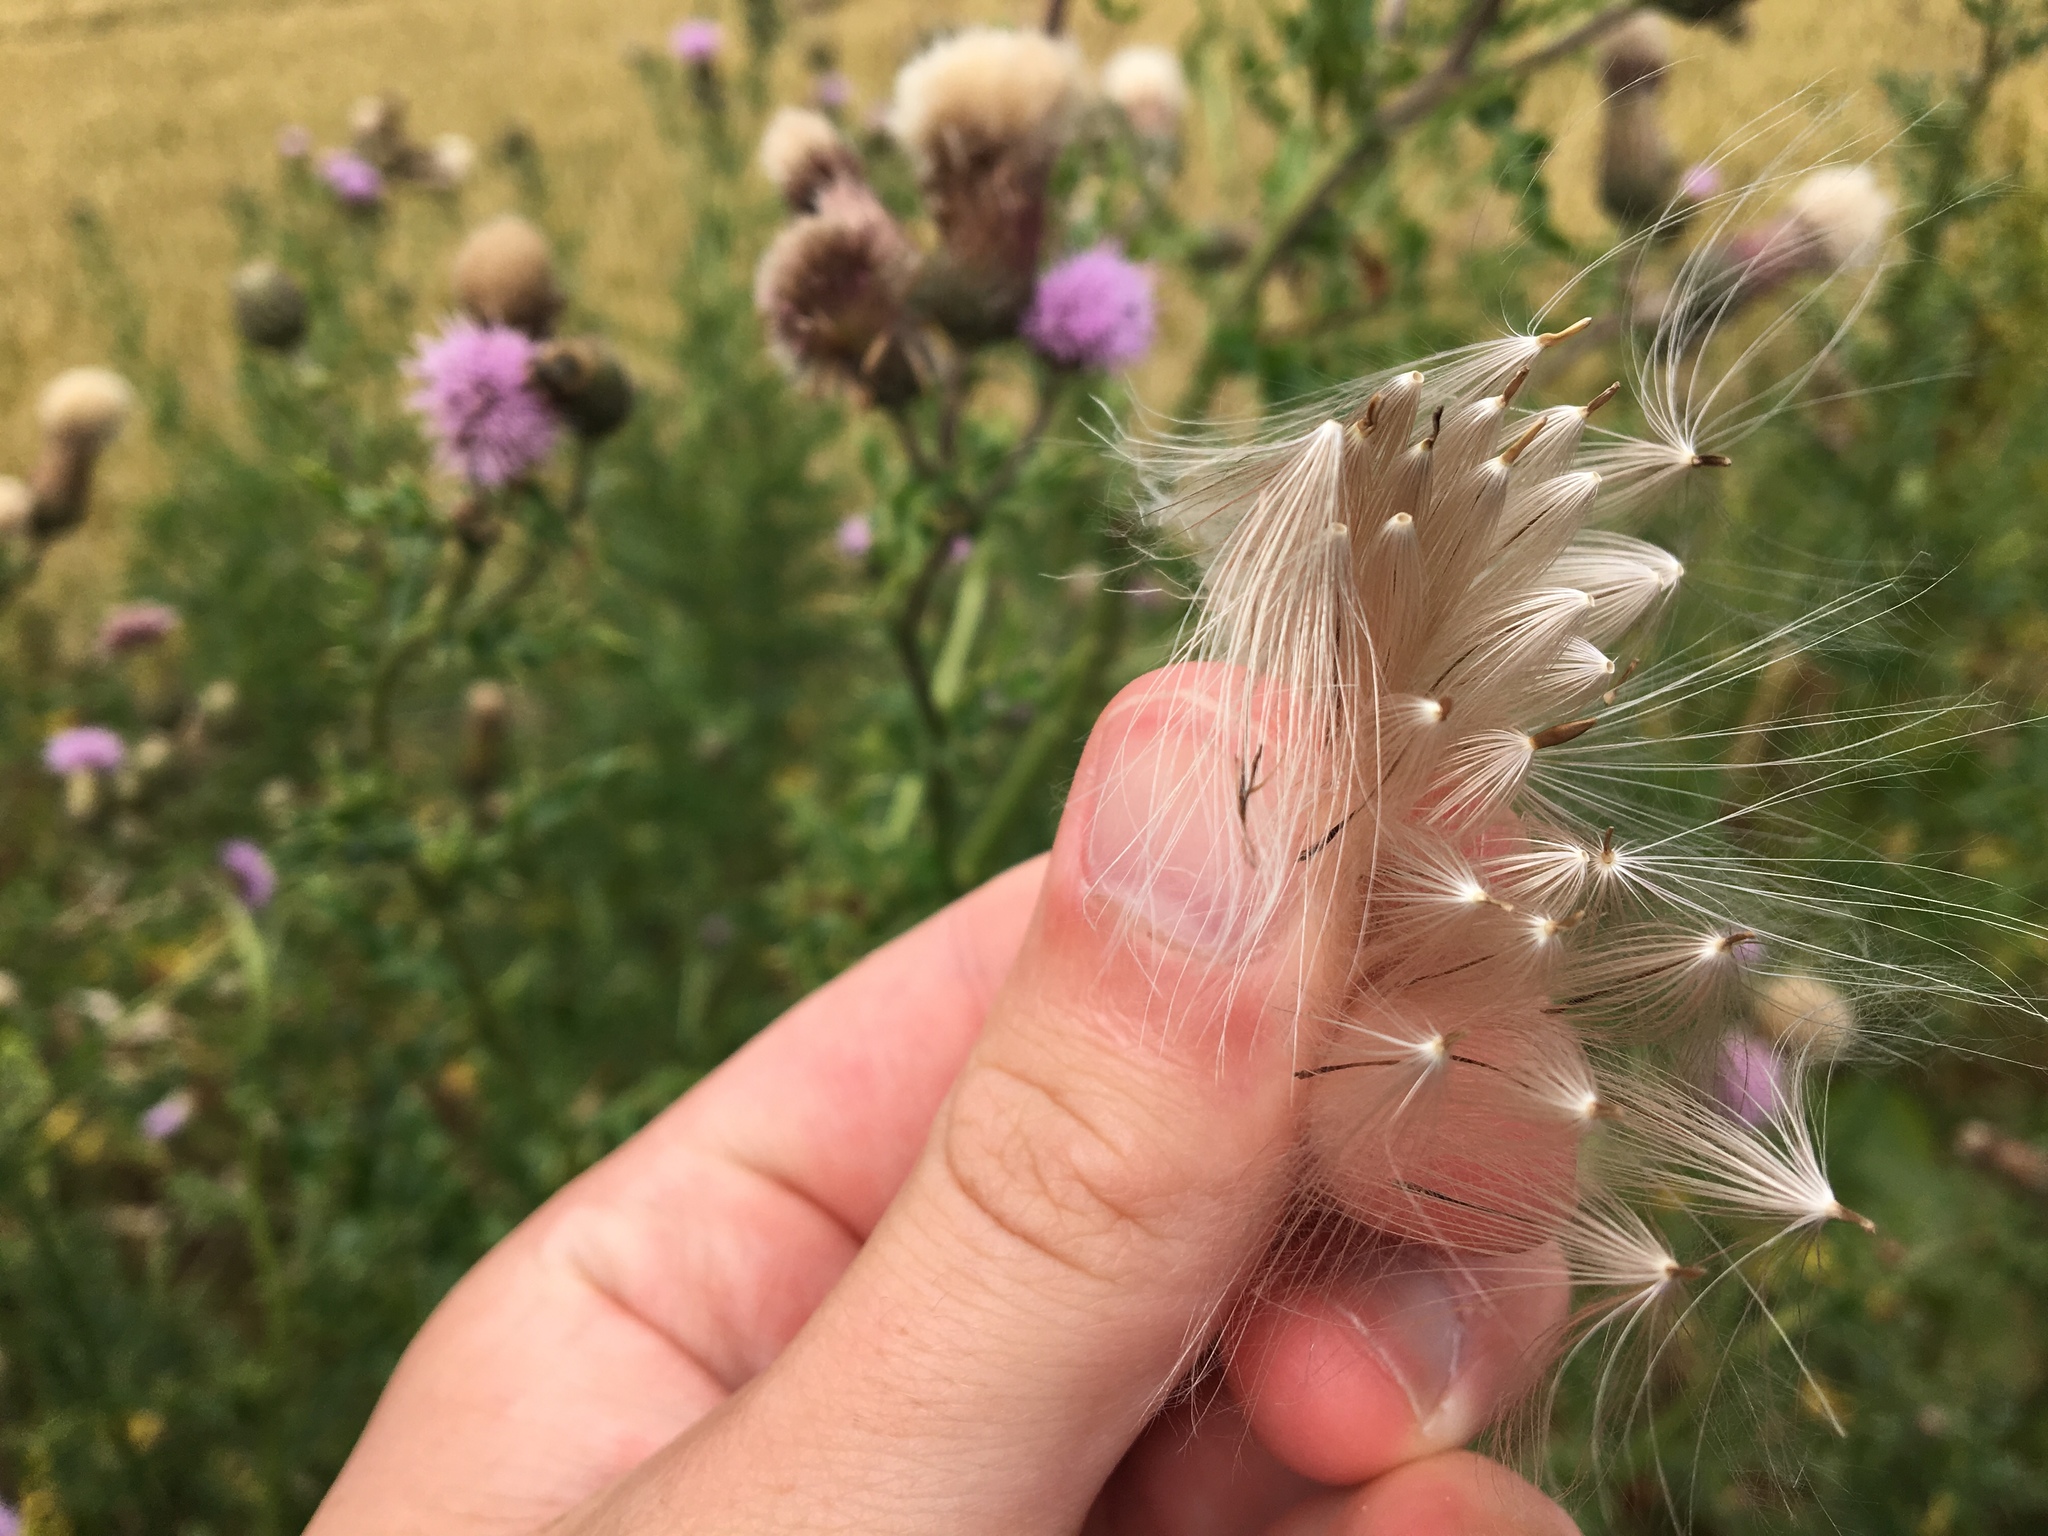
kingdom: Plantae
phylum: Tracheophyta
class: Magnoliopsida
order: Asterales
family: Asteraceae
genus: Cirsium
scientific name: Cirsium arvense
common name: Creeping thistle
